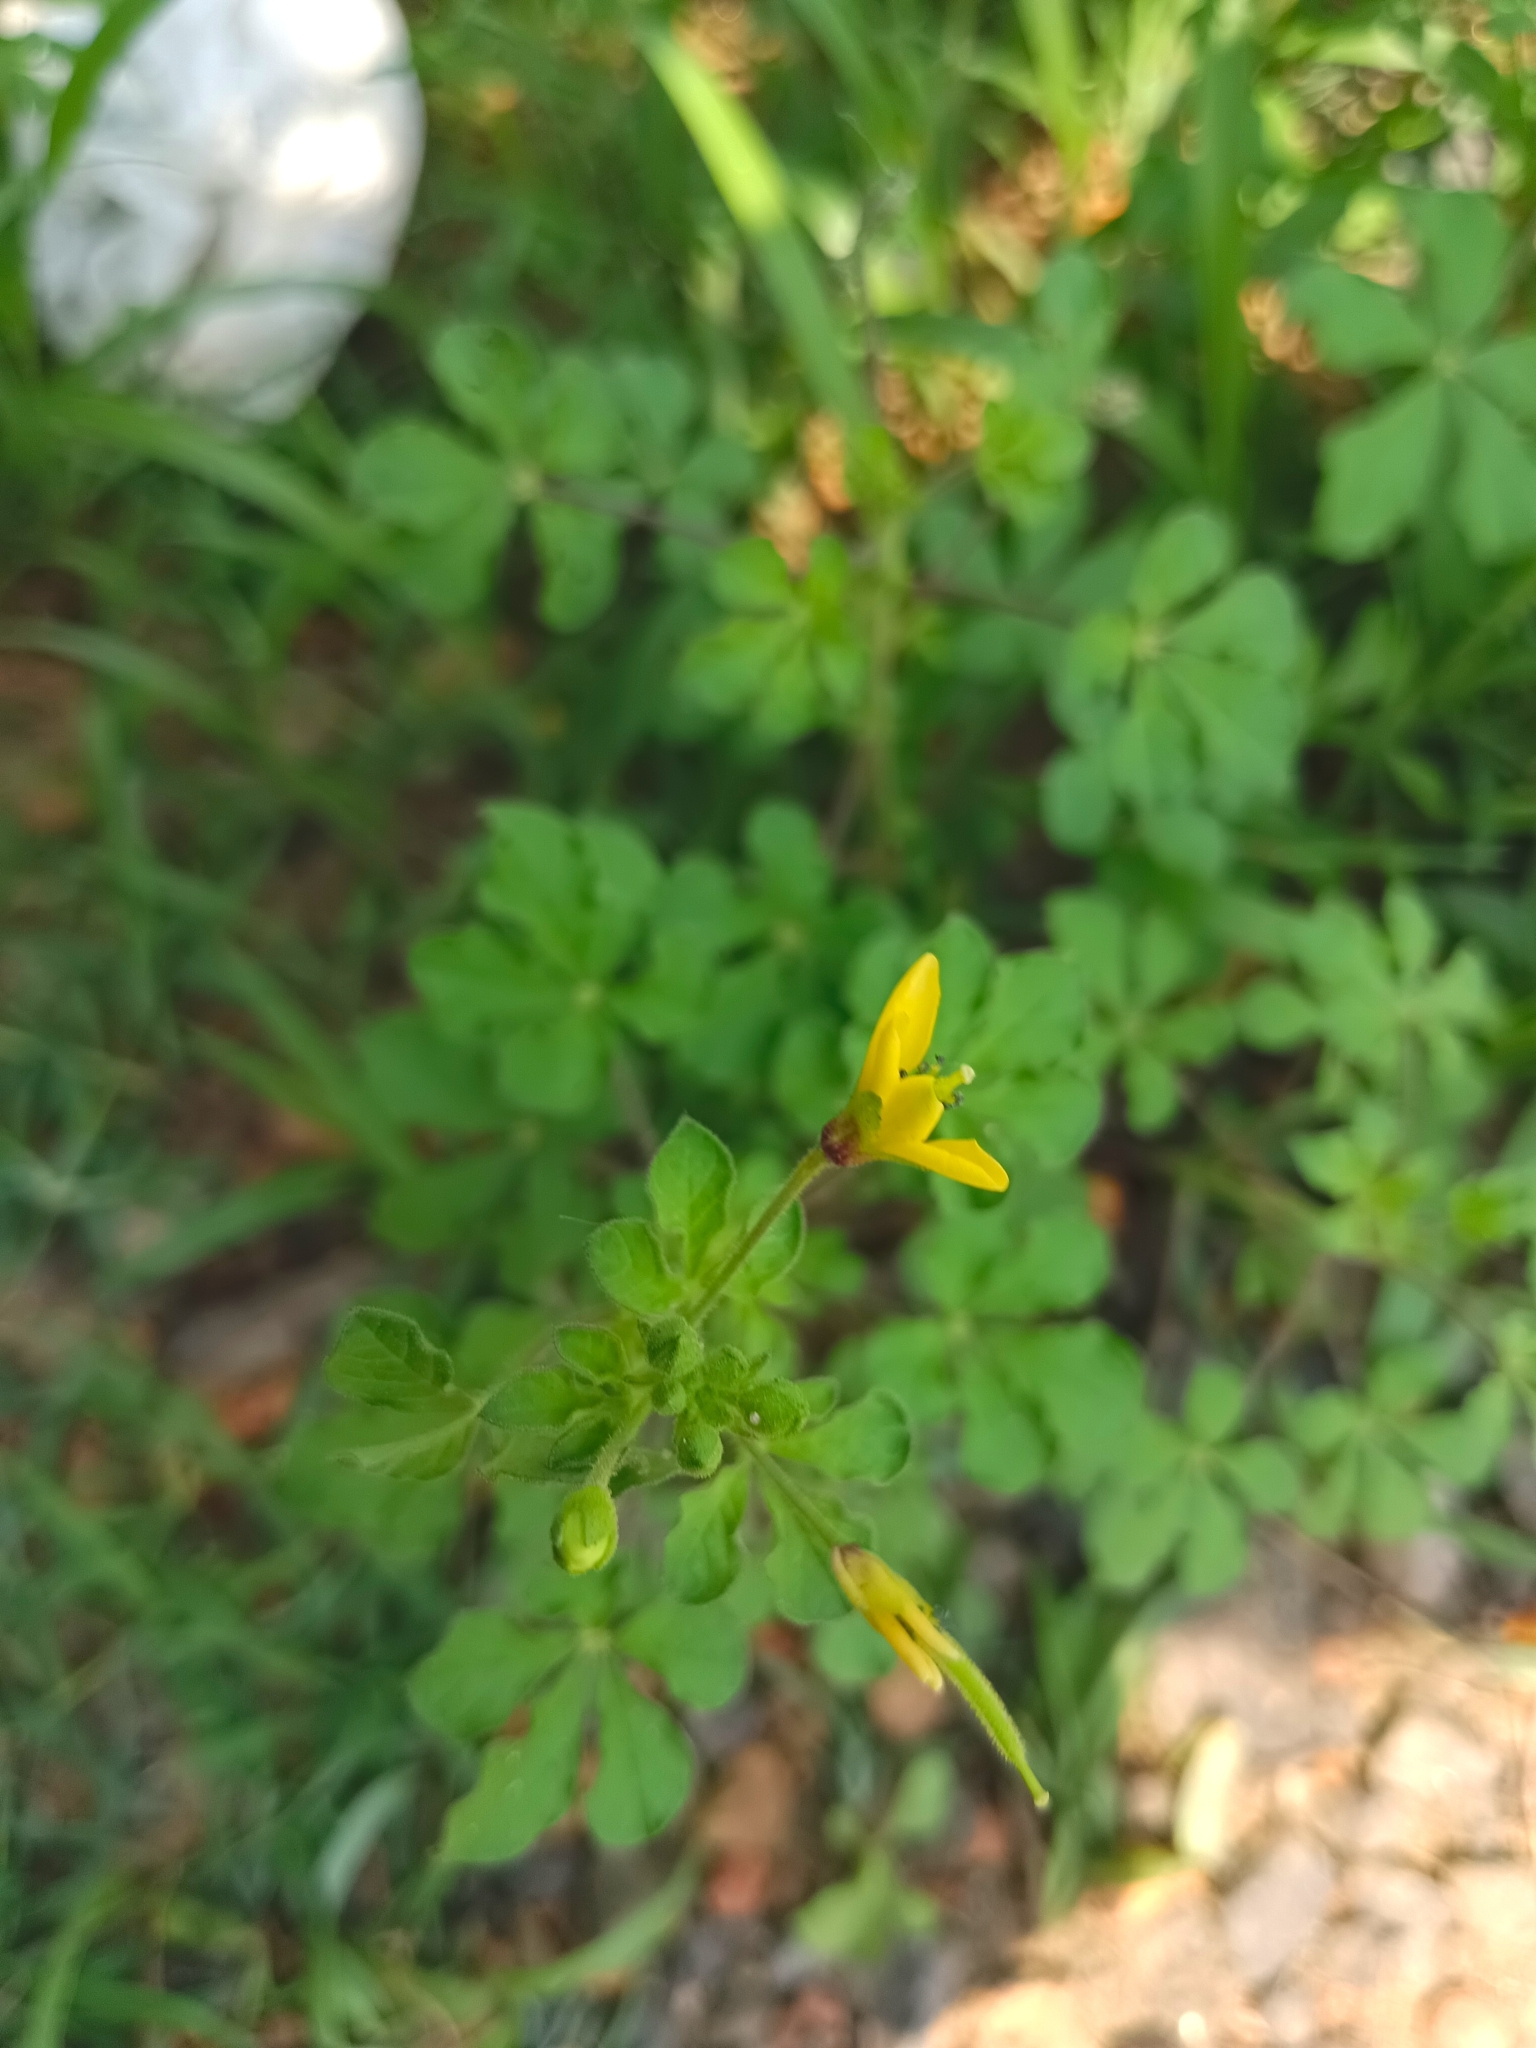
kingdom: Plantae
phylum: Tracheophyta
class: Magnoliopsida
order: Brassicales
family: Cleomaceae
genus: Arivela
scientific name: Arivela viscosa
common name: Asian spiderflower
